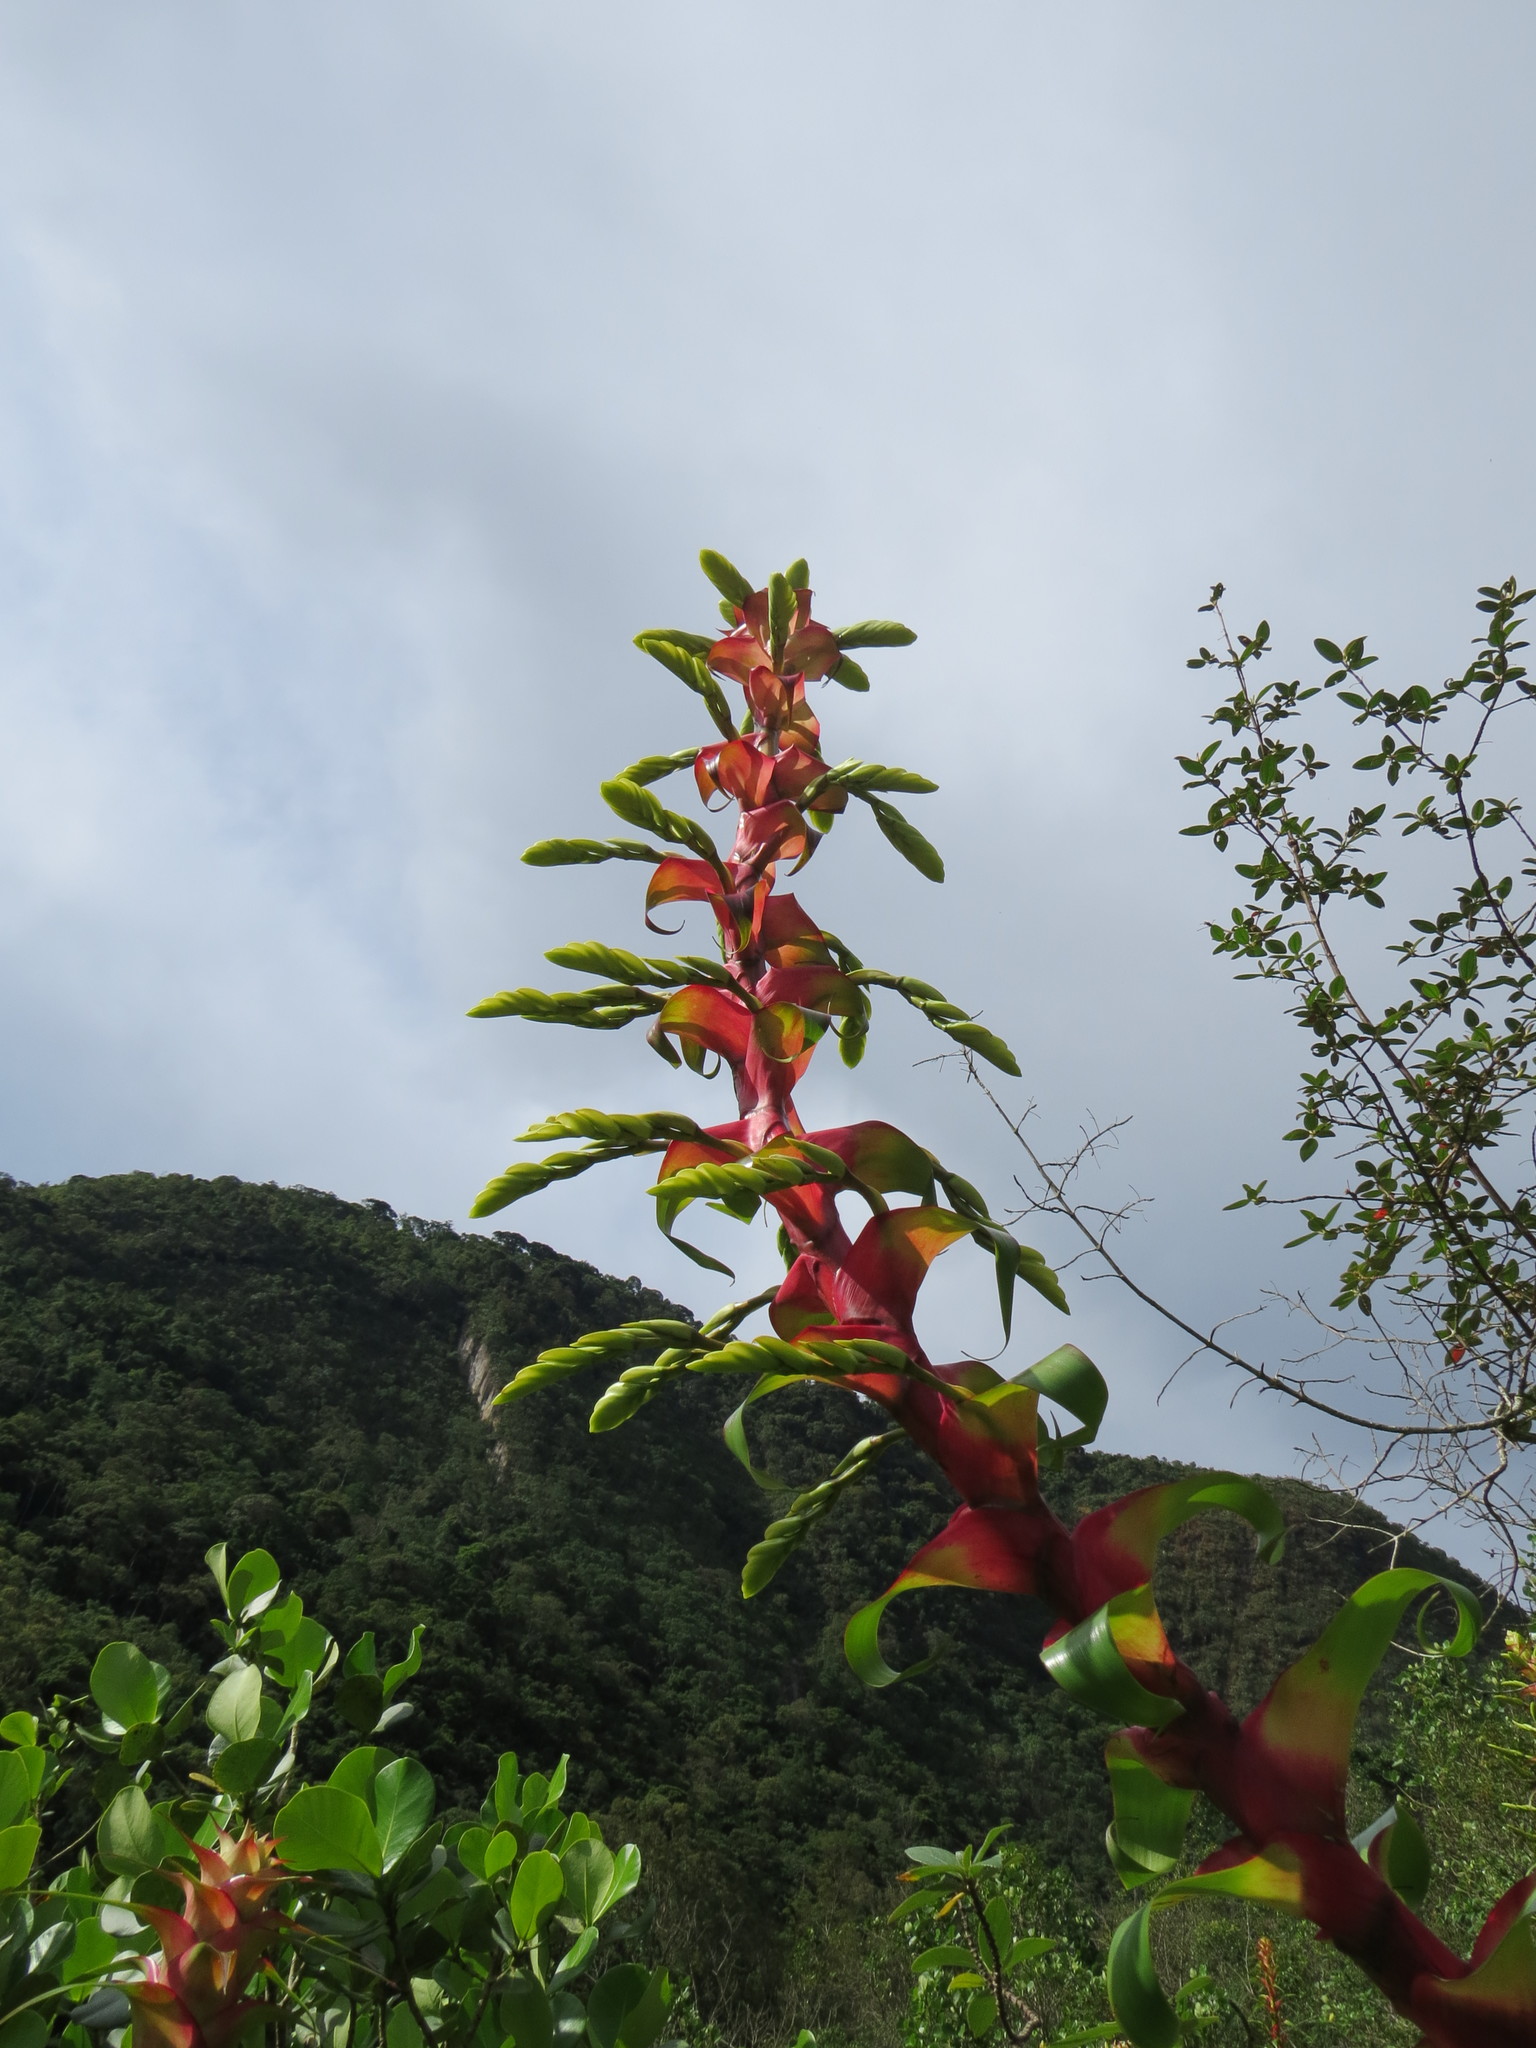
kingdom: Plantae
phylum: Tracheophyta
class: Liliopsida
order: Poales
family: Bromeliaceae
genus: Alcantarea
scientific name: Alcantarea geniculata
